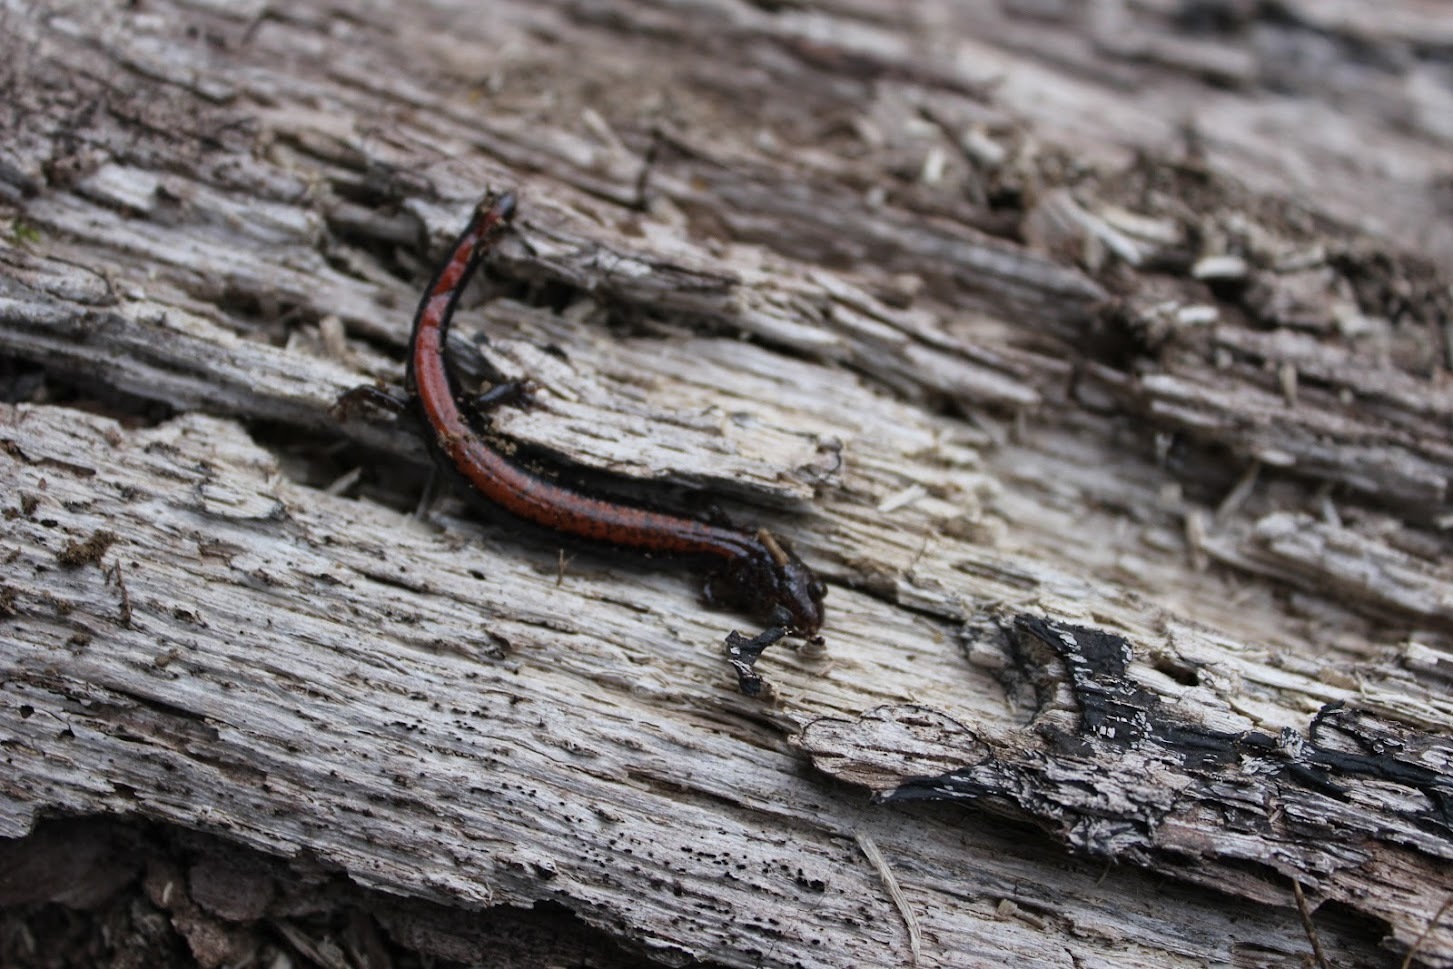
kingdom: Animalia
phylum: Chordata
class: Amphibia
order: Caudata
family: Plethodontidae
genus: Plethodon
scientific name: Plethodon cinereus
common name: Redback salamander
